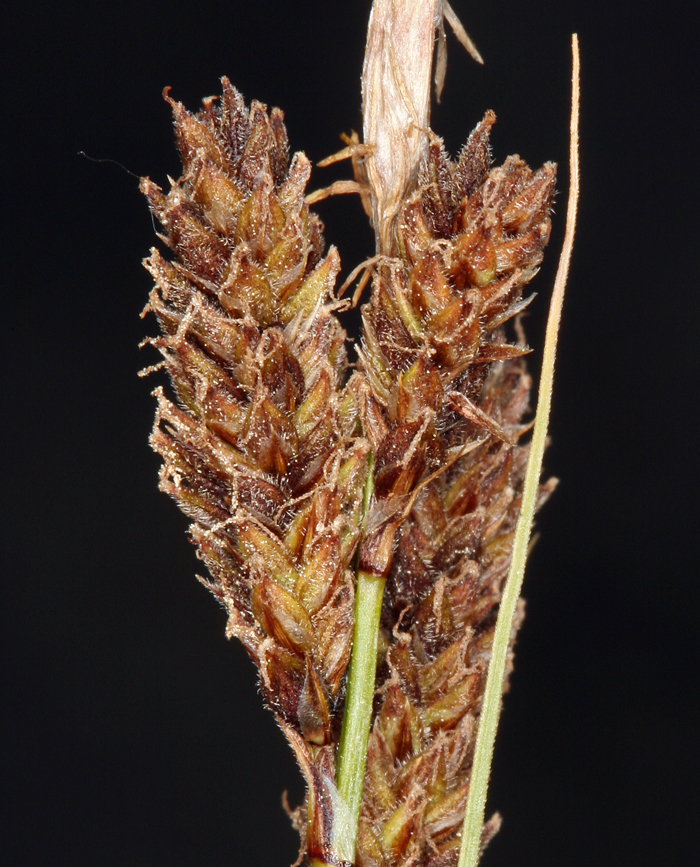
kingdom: Plantae
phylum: Tracheophyta
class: Liliopsida
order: Poales
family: Cyperaceae
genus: Carex
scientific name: Carex congdonii
